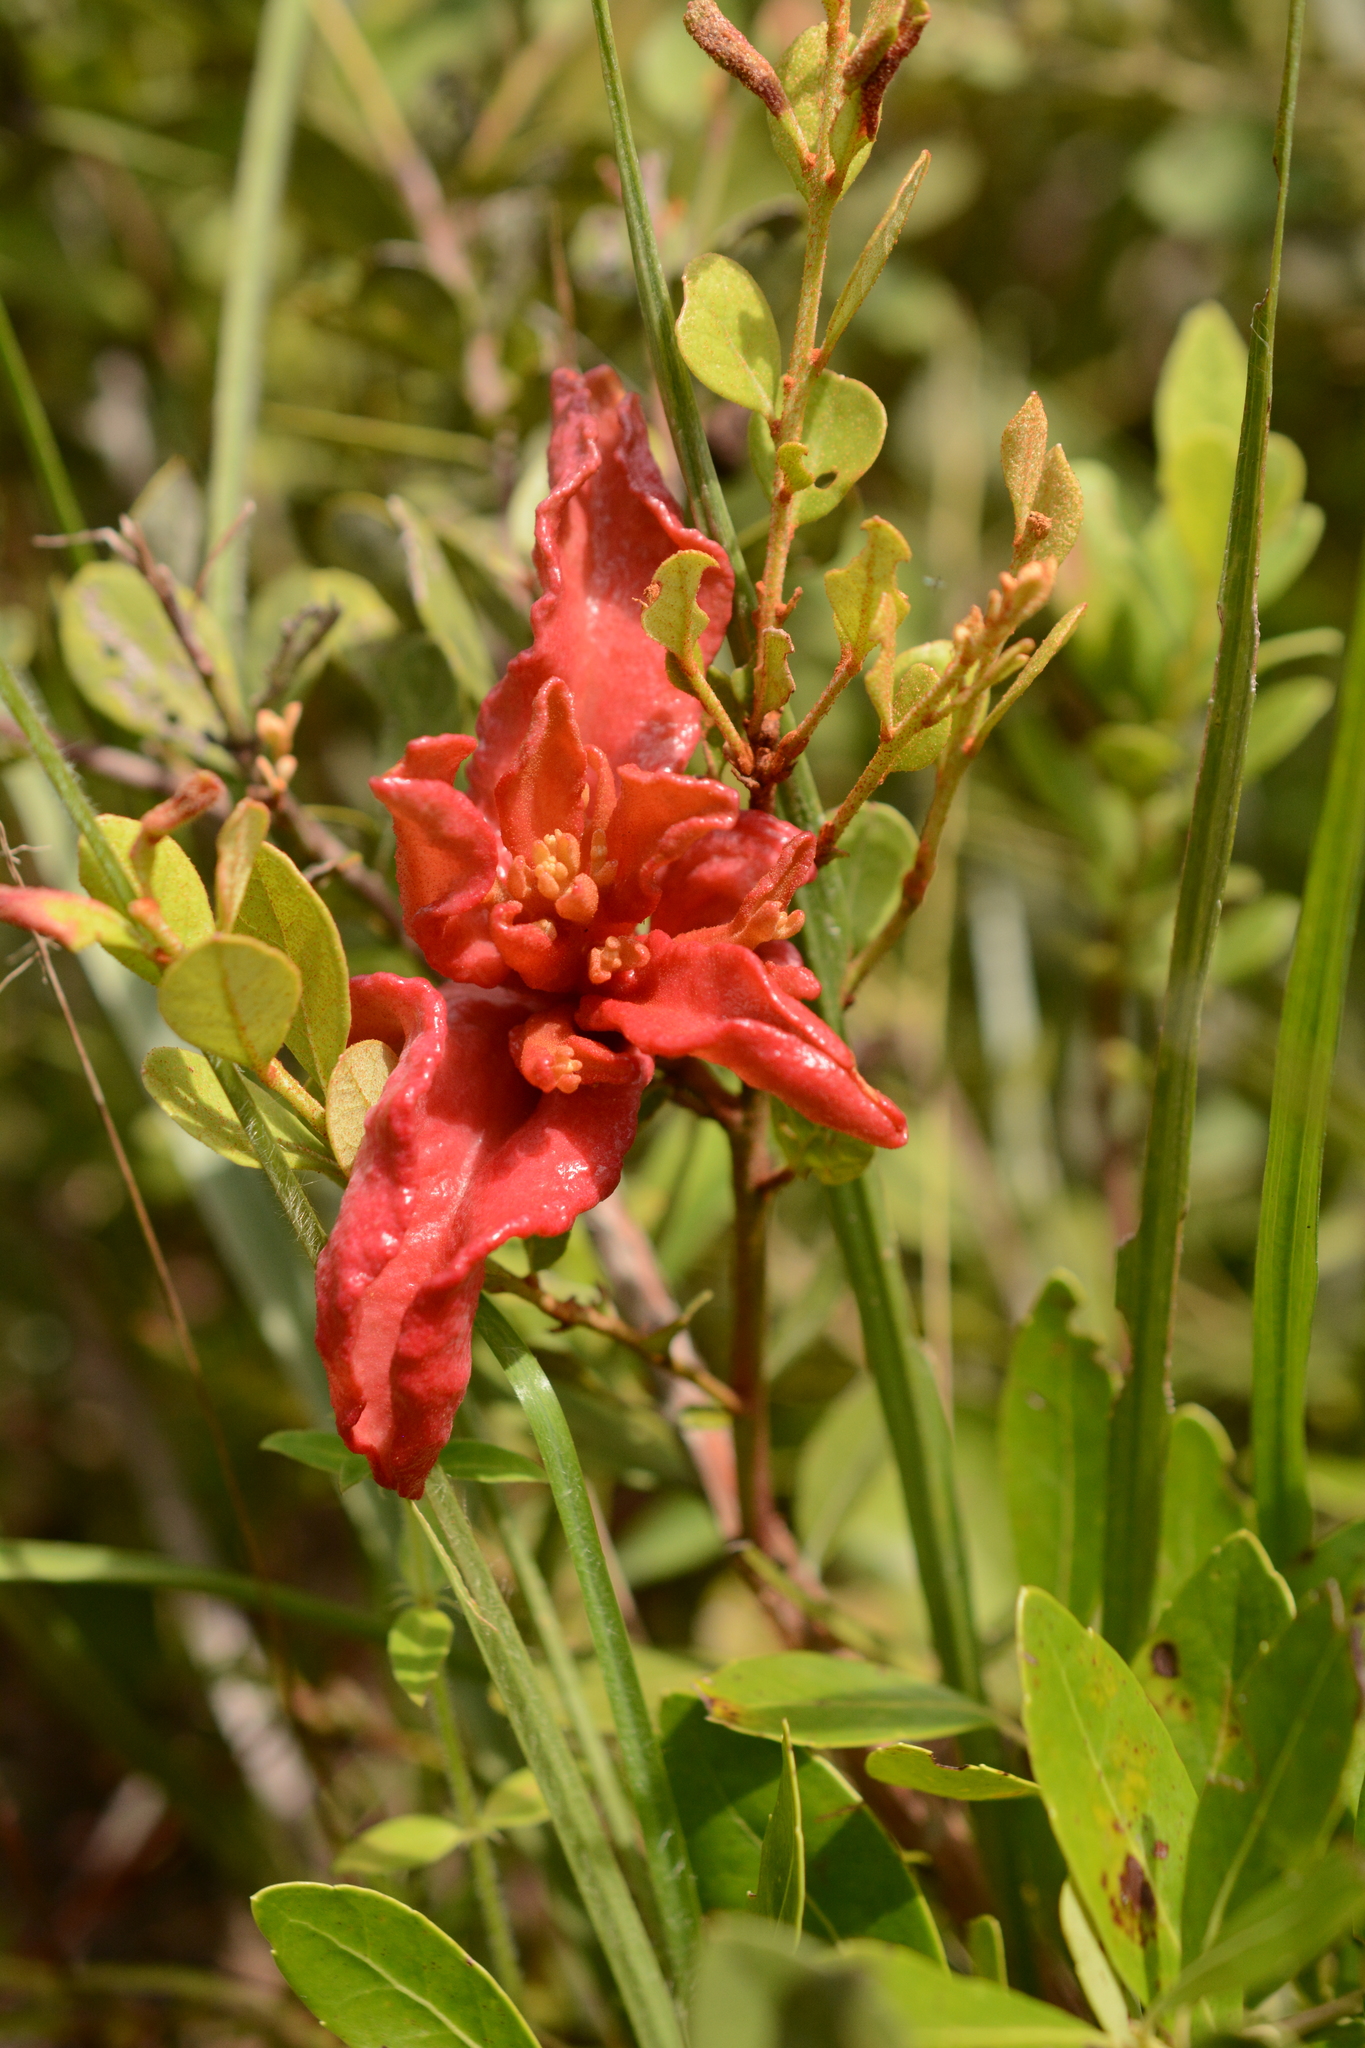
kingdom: Plantae
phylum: Tracheophyta
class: Magnoliopsida
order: Ericales
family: Ericaceae
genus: Lyonia
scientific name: Lyonia fruticosa
